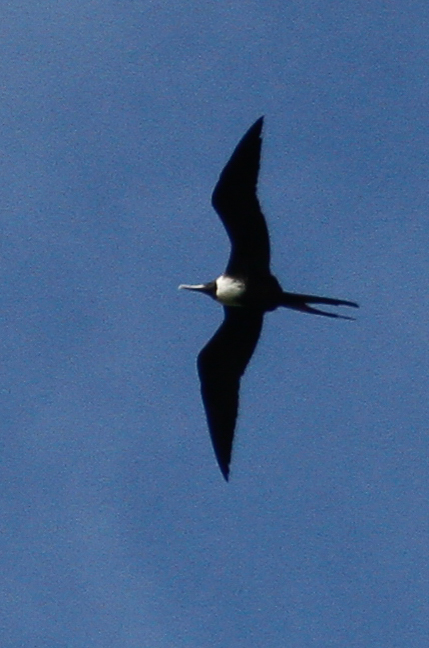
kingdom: Animalia
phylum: Chordata
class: Aves
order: Suliformes
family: Fregatidae
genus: Fregata
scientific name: Fregata magnificens
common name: Magnificent frigatebird
